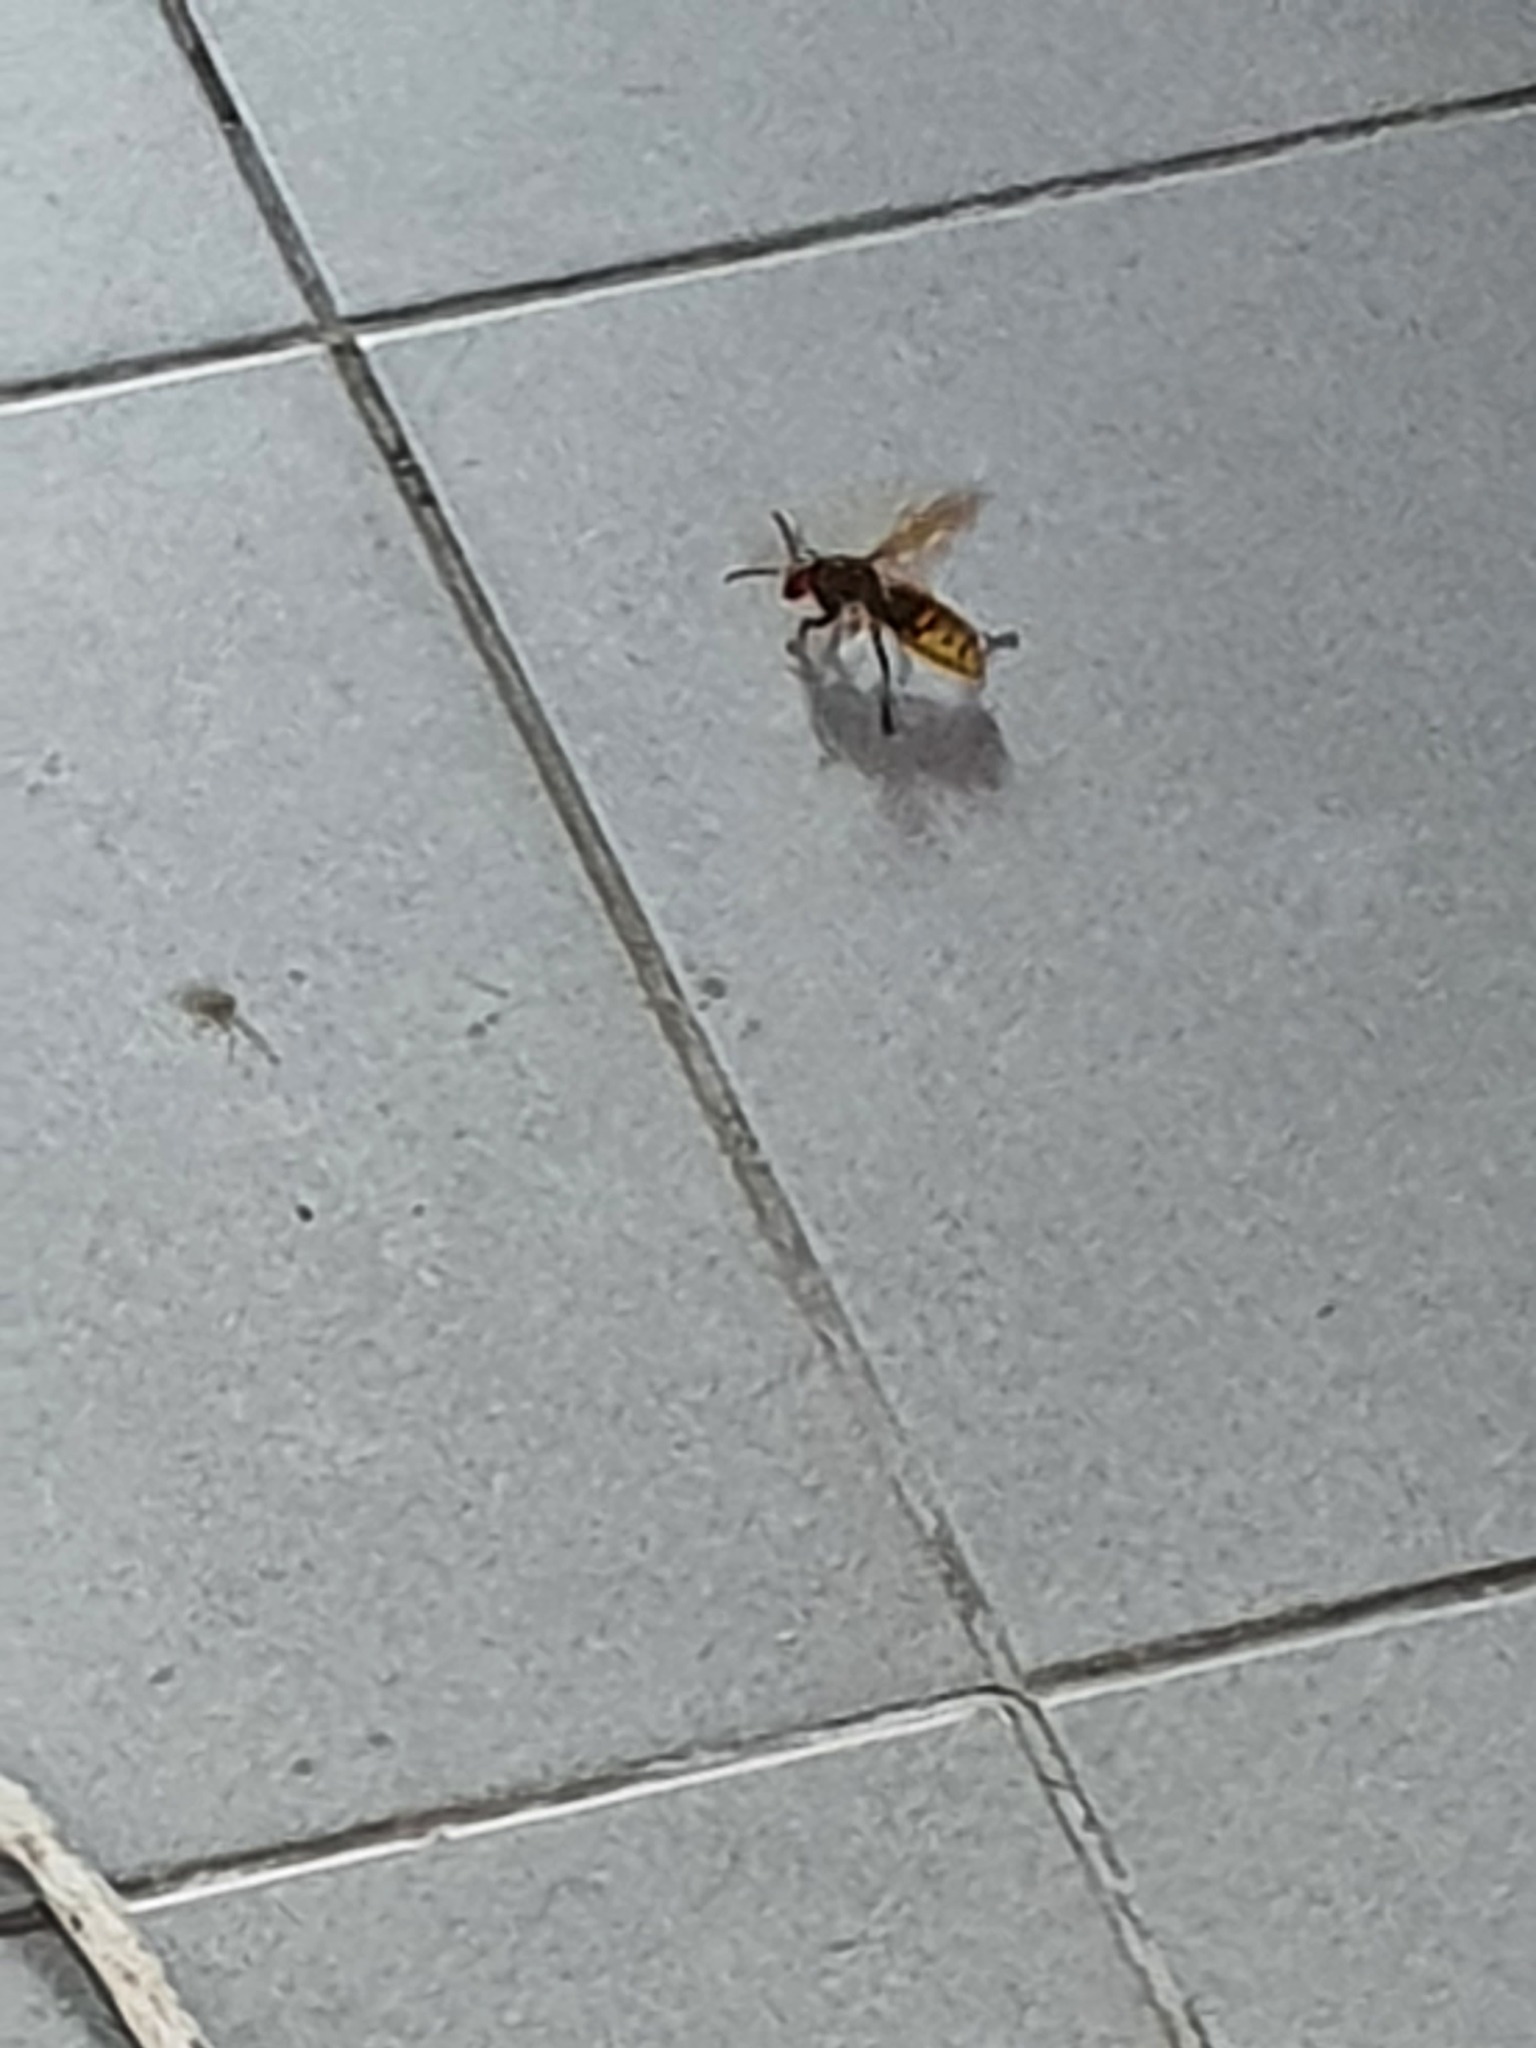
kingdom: Animalia
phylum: Arthropoda
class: Insecta
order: Hymenoptera
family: Vespidae
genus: Vespa
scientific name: Vespa crabro
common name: Hornet
